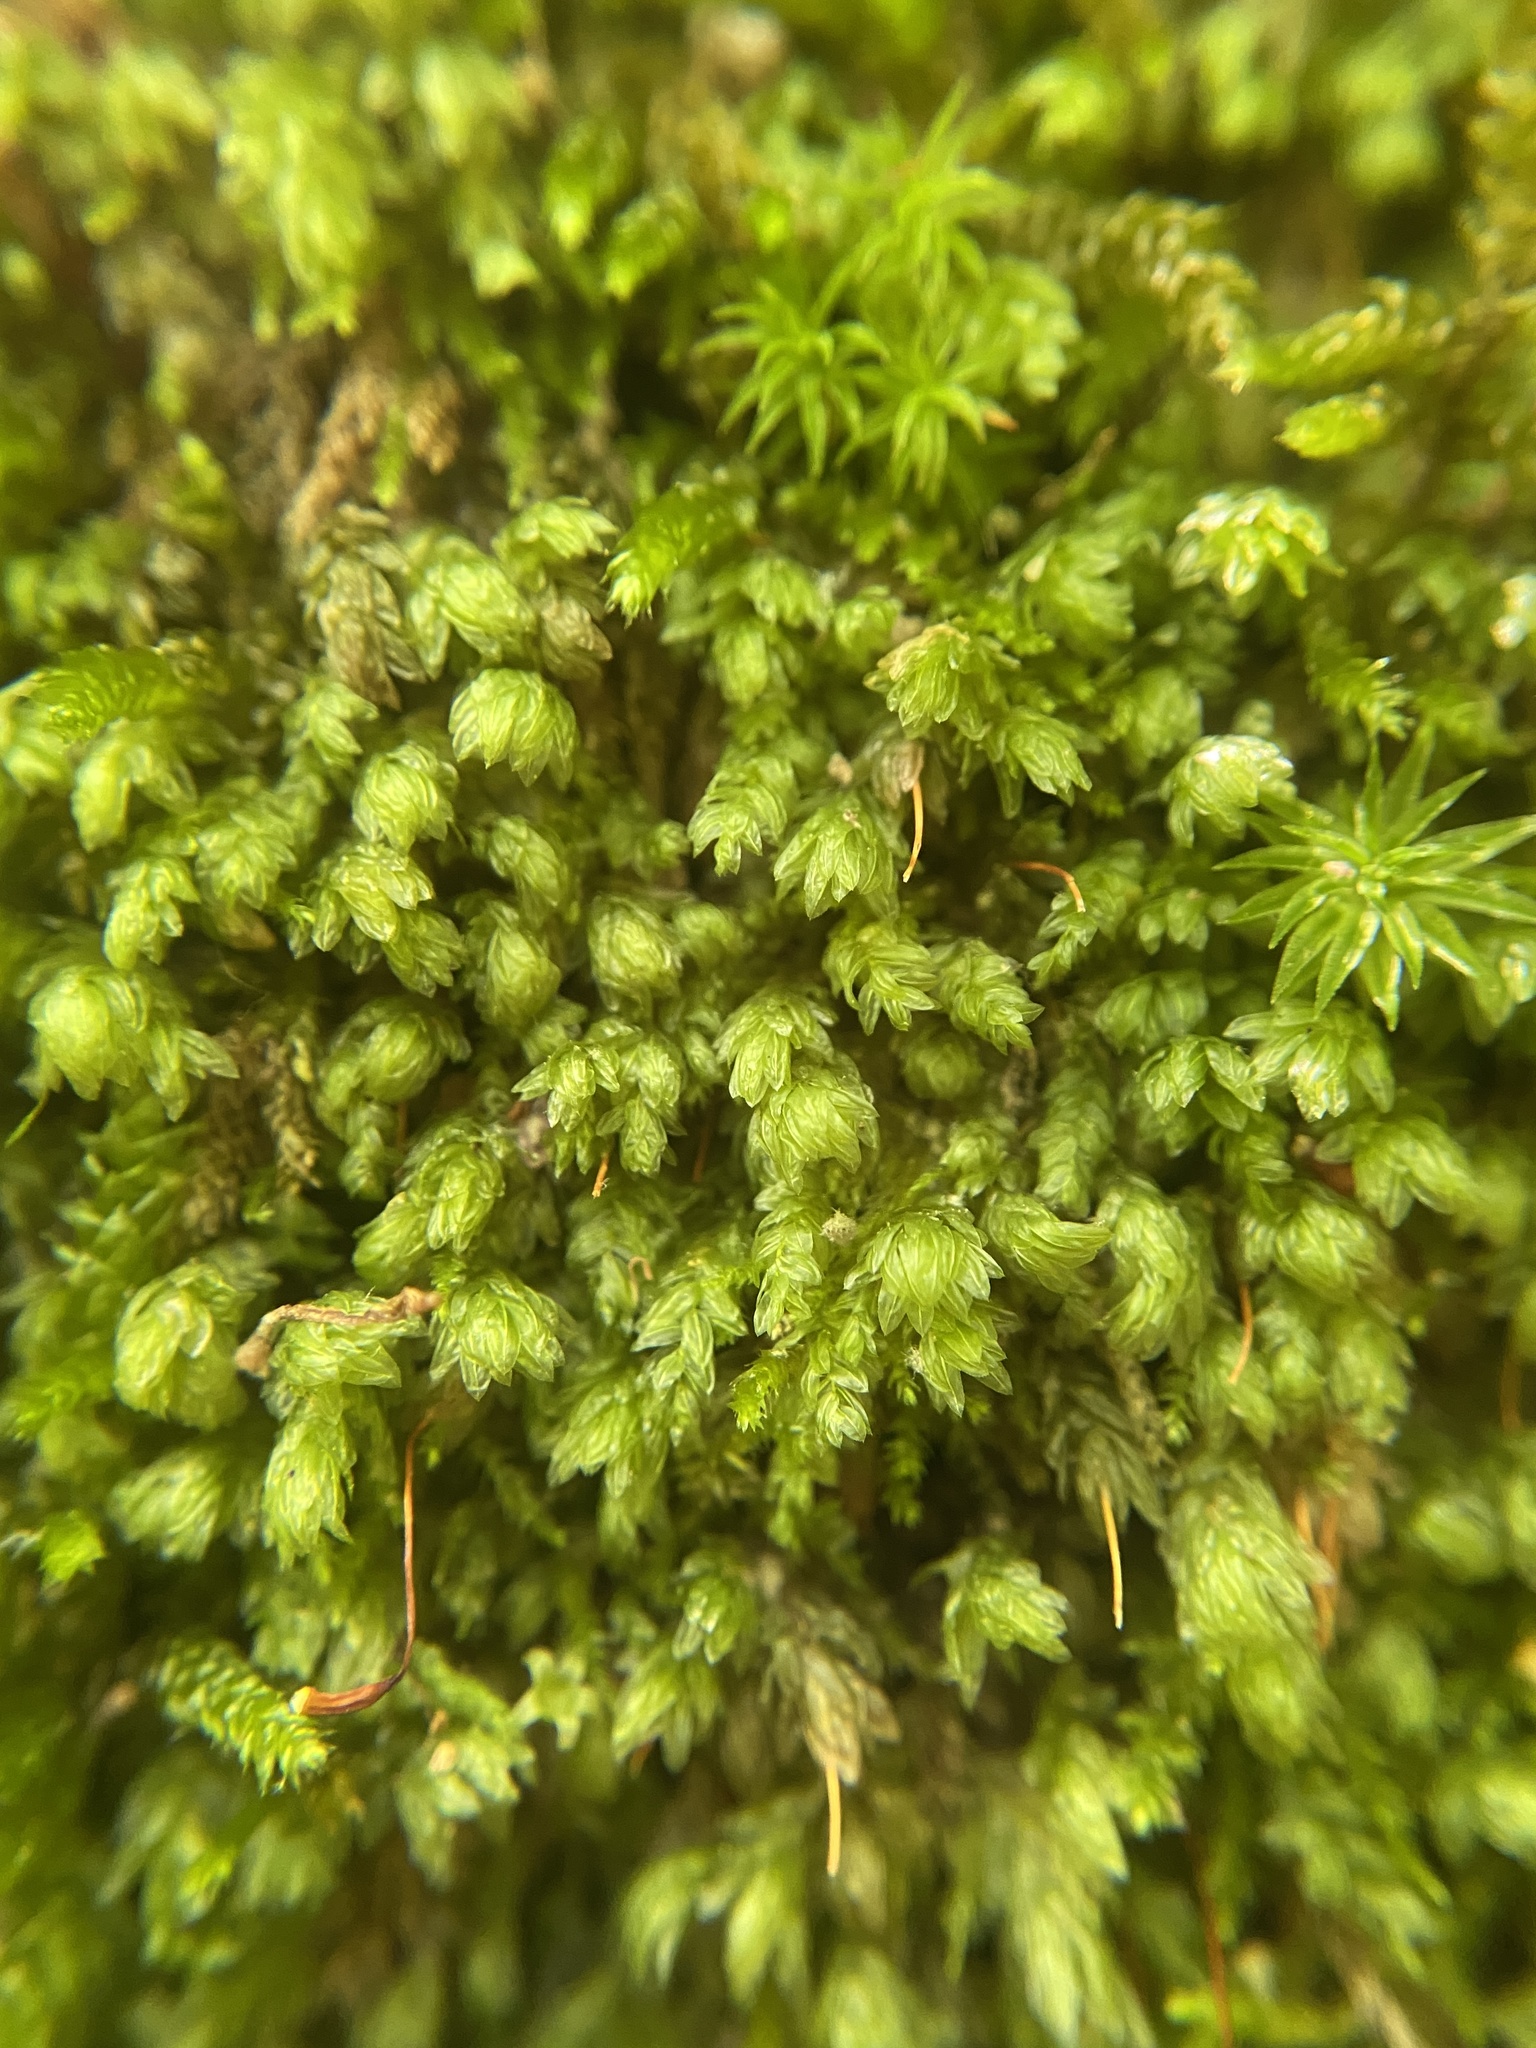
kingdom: Plantae
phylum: Bryophyta
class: Bryopsida
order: Aulacomniales
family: Aulacomniaceae
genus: Aulacomnium
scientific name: Aulacomnium heterostichum
